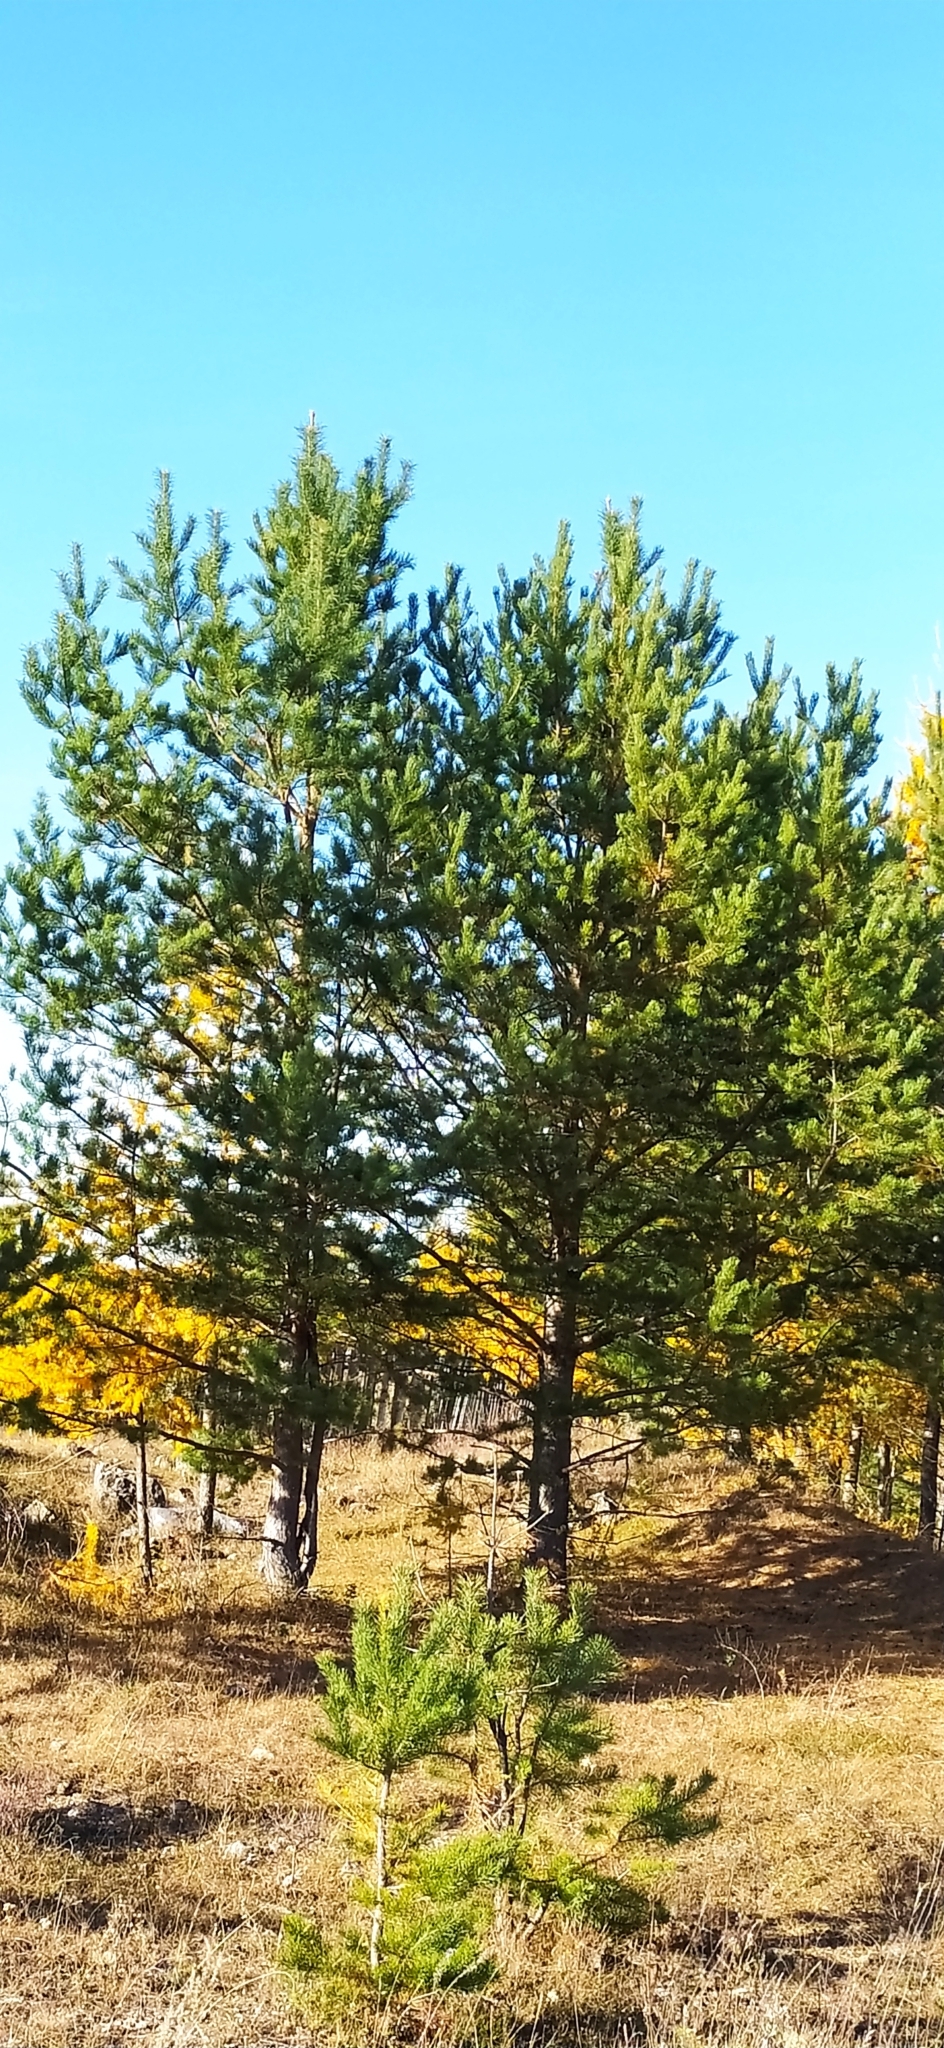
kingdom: Plantae
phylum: Tracheophyta
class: Pinopsida
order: Pinales
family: Pinaceae
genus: Pinus
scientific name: Pinus sylvestris
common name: Scots pine
